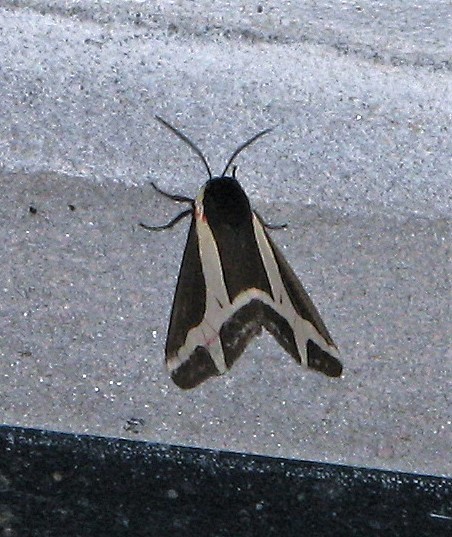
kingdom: Animalia
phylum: Arthropoda
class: Insecta
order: Lepidoptera
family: Erebidae
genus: Dysschema
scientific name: Dysschema sacrifica
